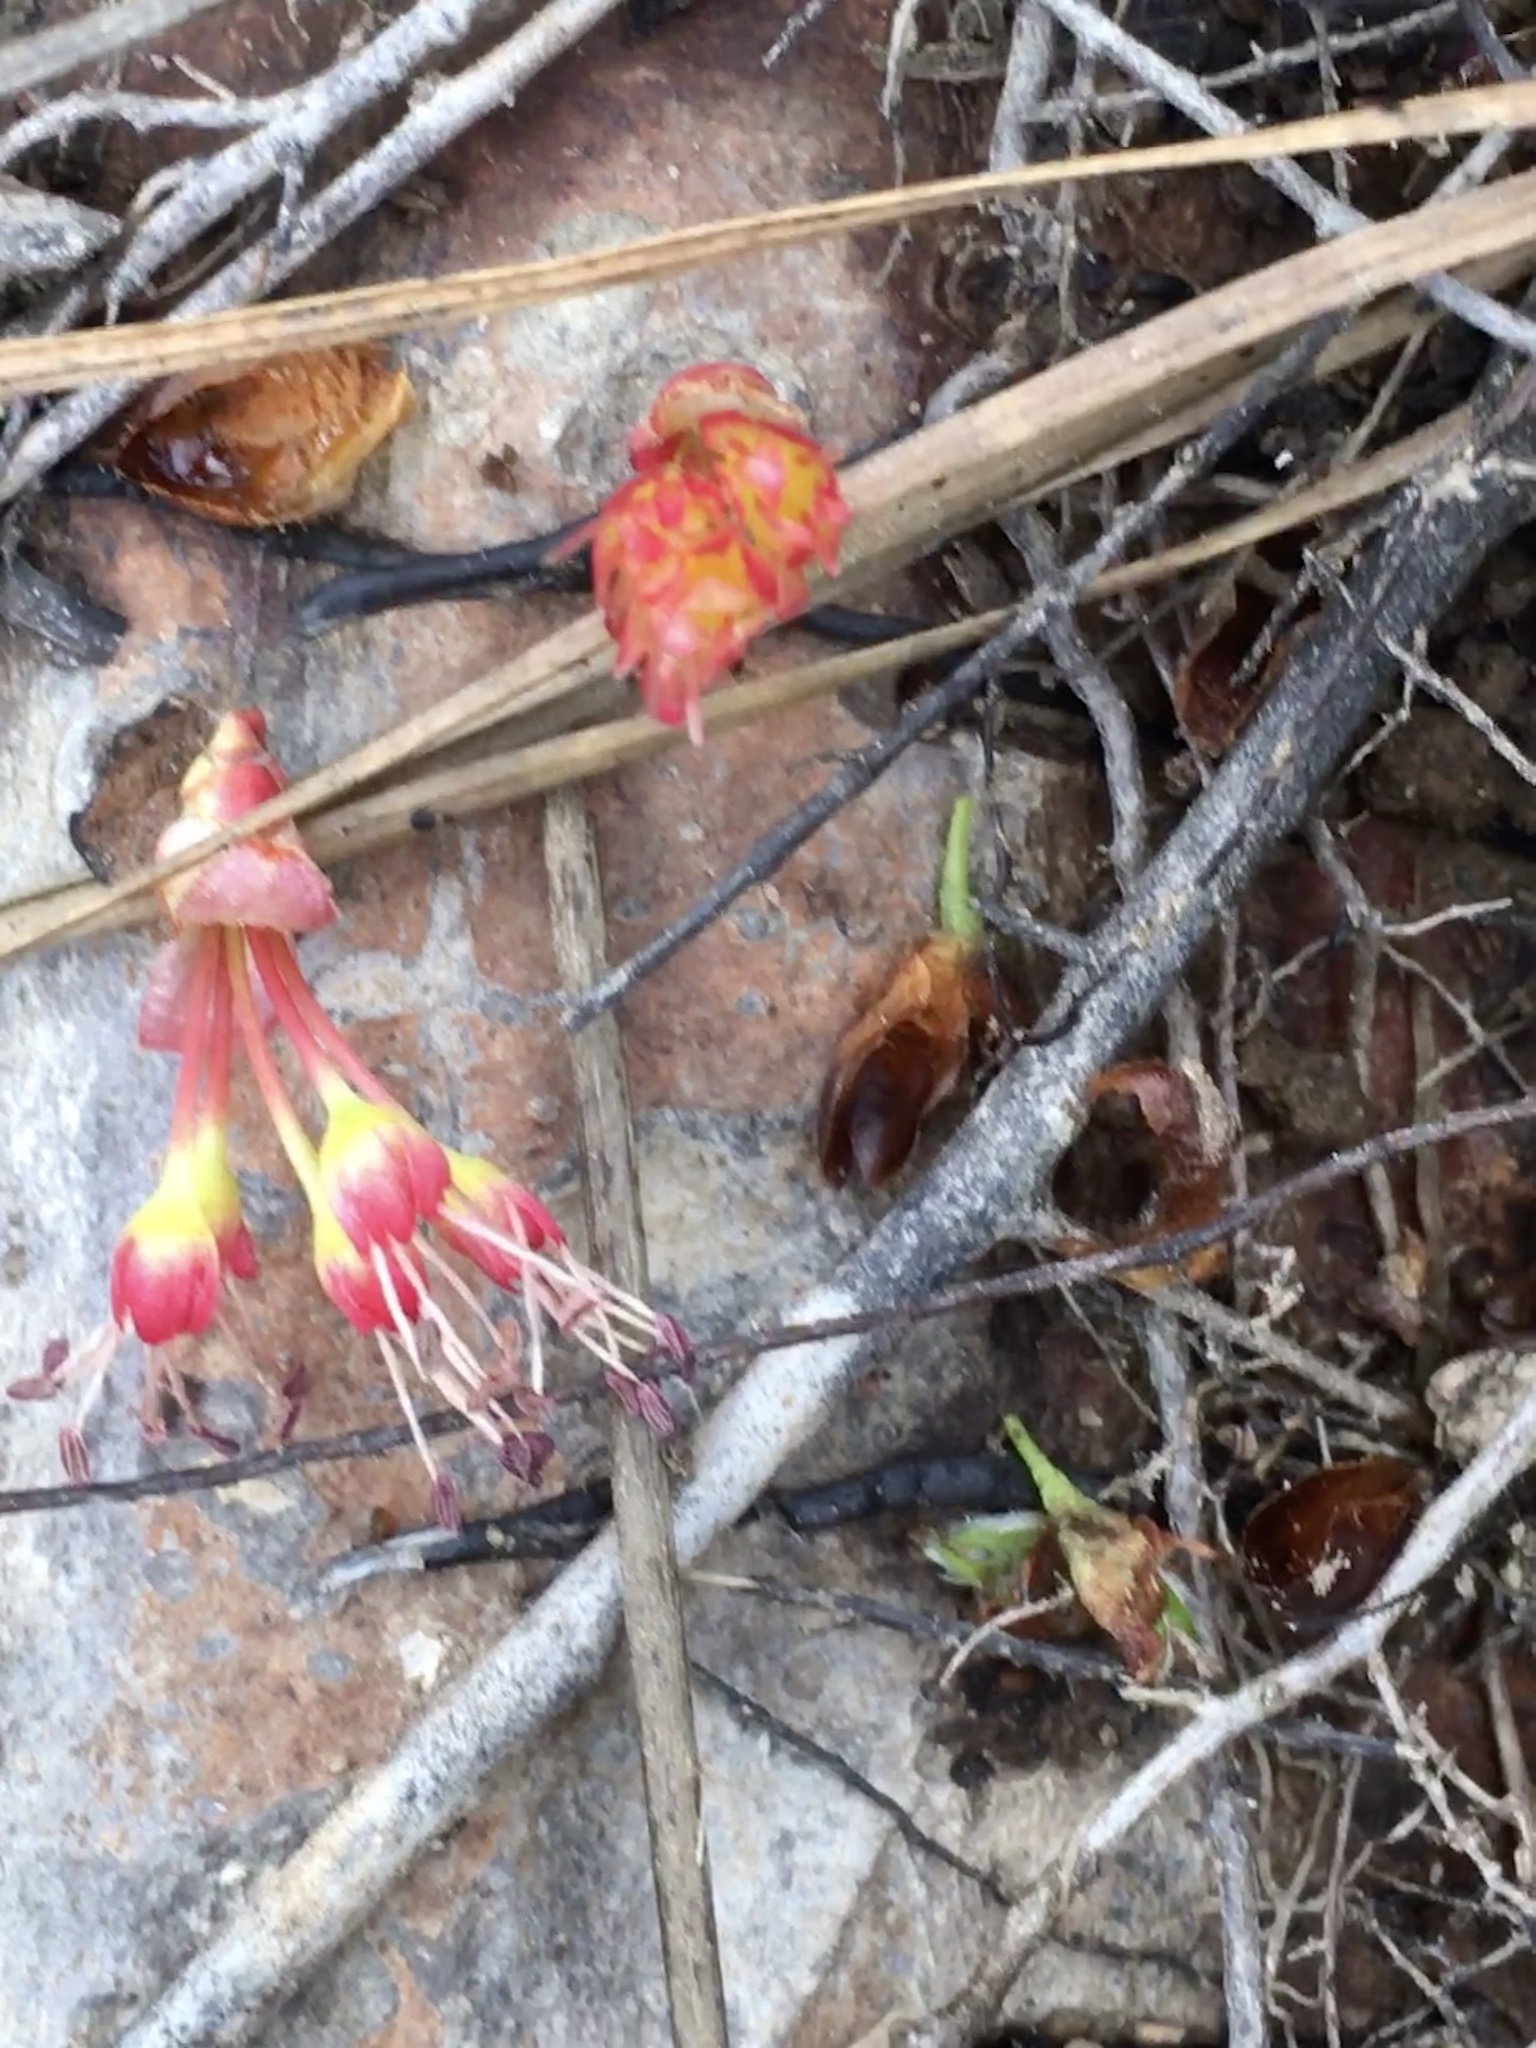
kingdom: Plantae
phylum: Tracheophyta
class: Magnoliopsida
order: Sapindales
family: Sapindaceae
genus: Acer
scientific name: Acer rubrum
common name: Red maple
